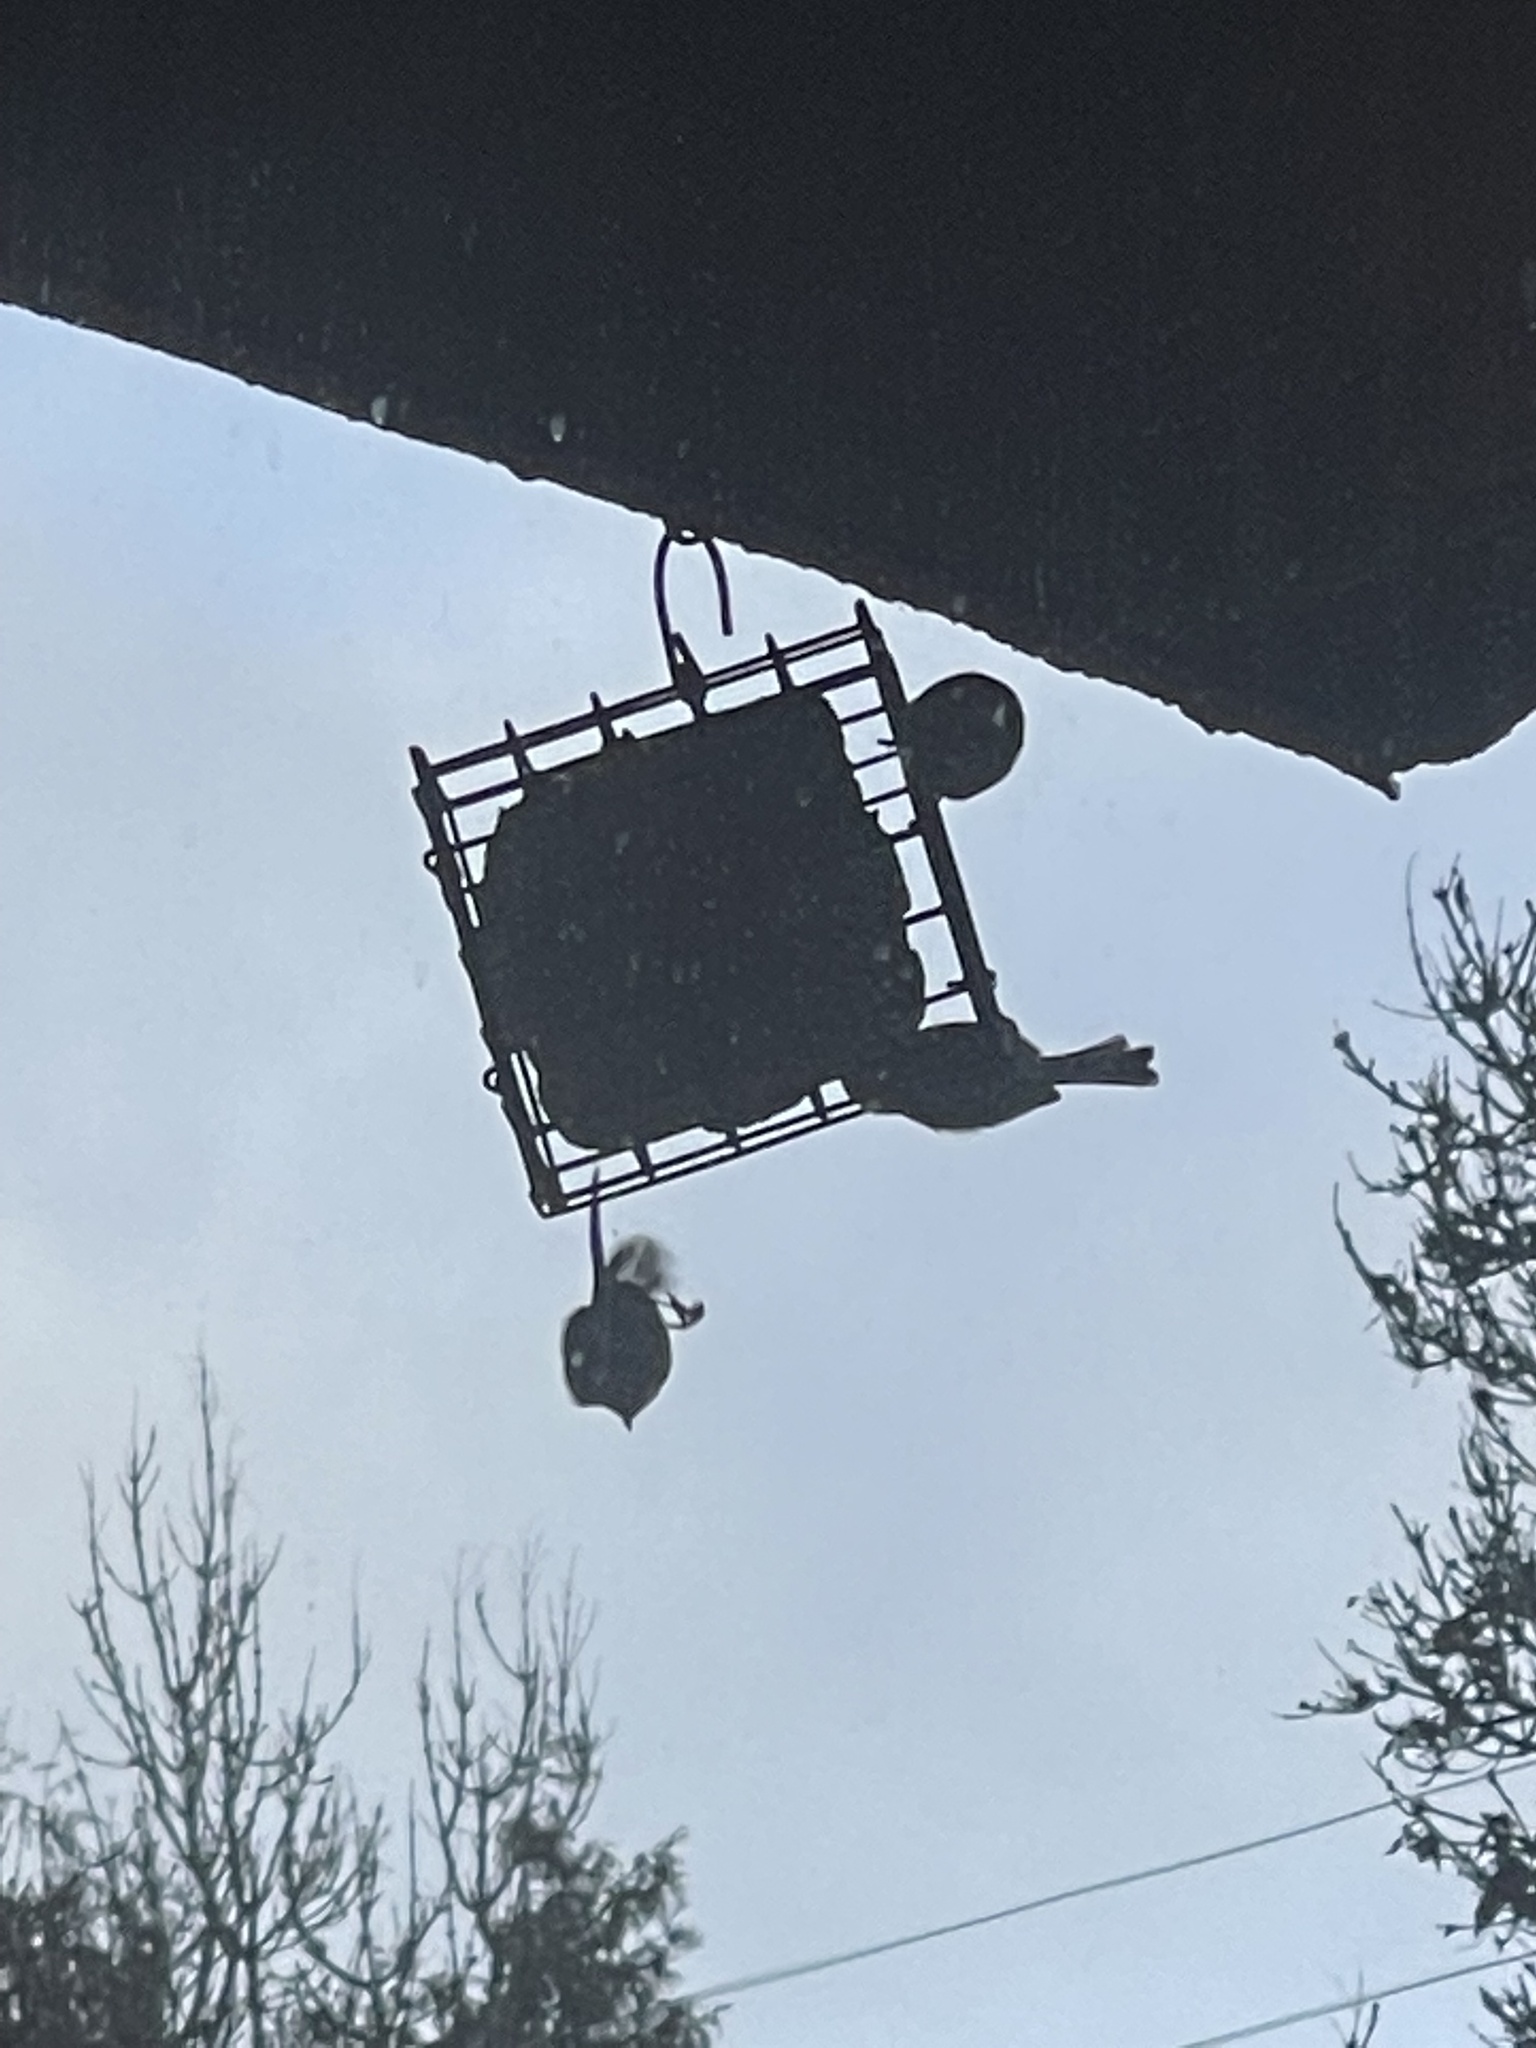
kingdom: Animalia
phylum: Chordata
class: Aves
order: Passeriformes
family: Aegithalidae
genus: Psaltriparus
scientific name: Psaltriparus minimus
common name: American bushtit
